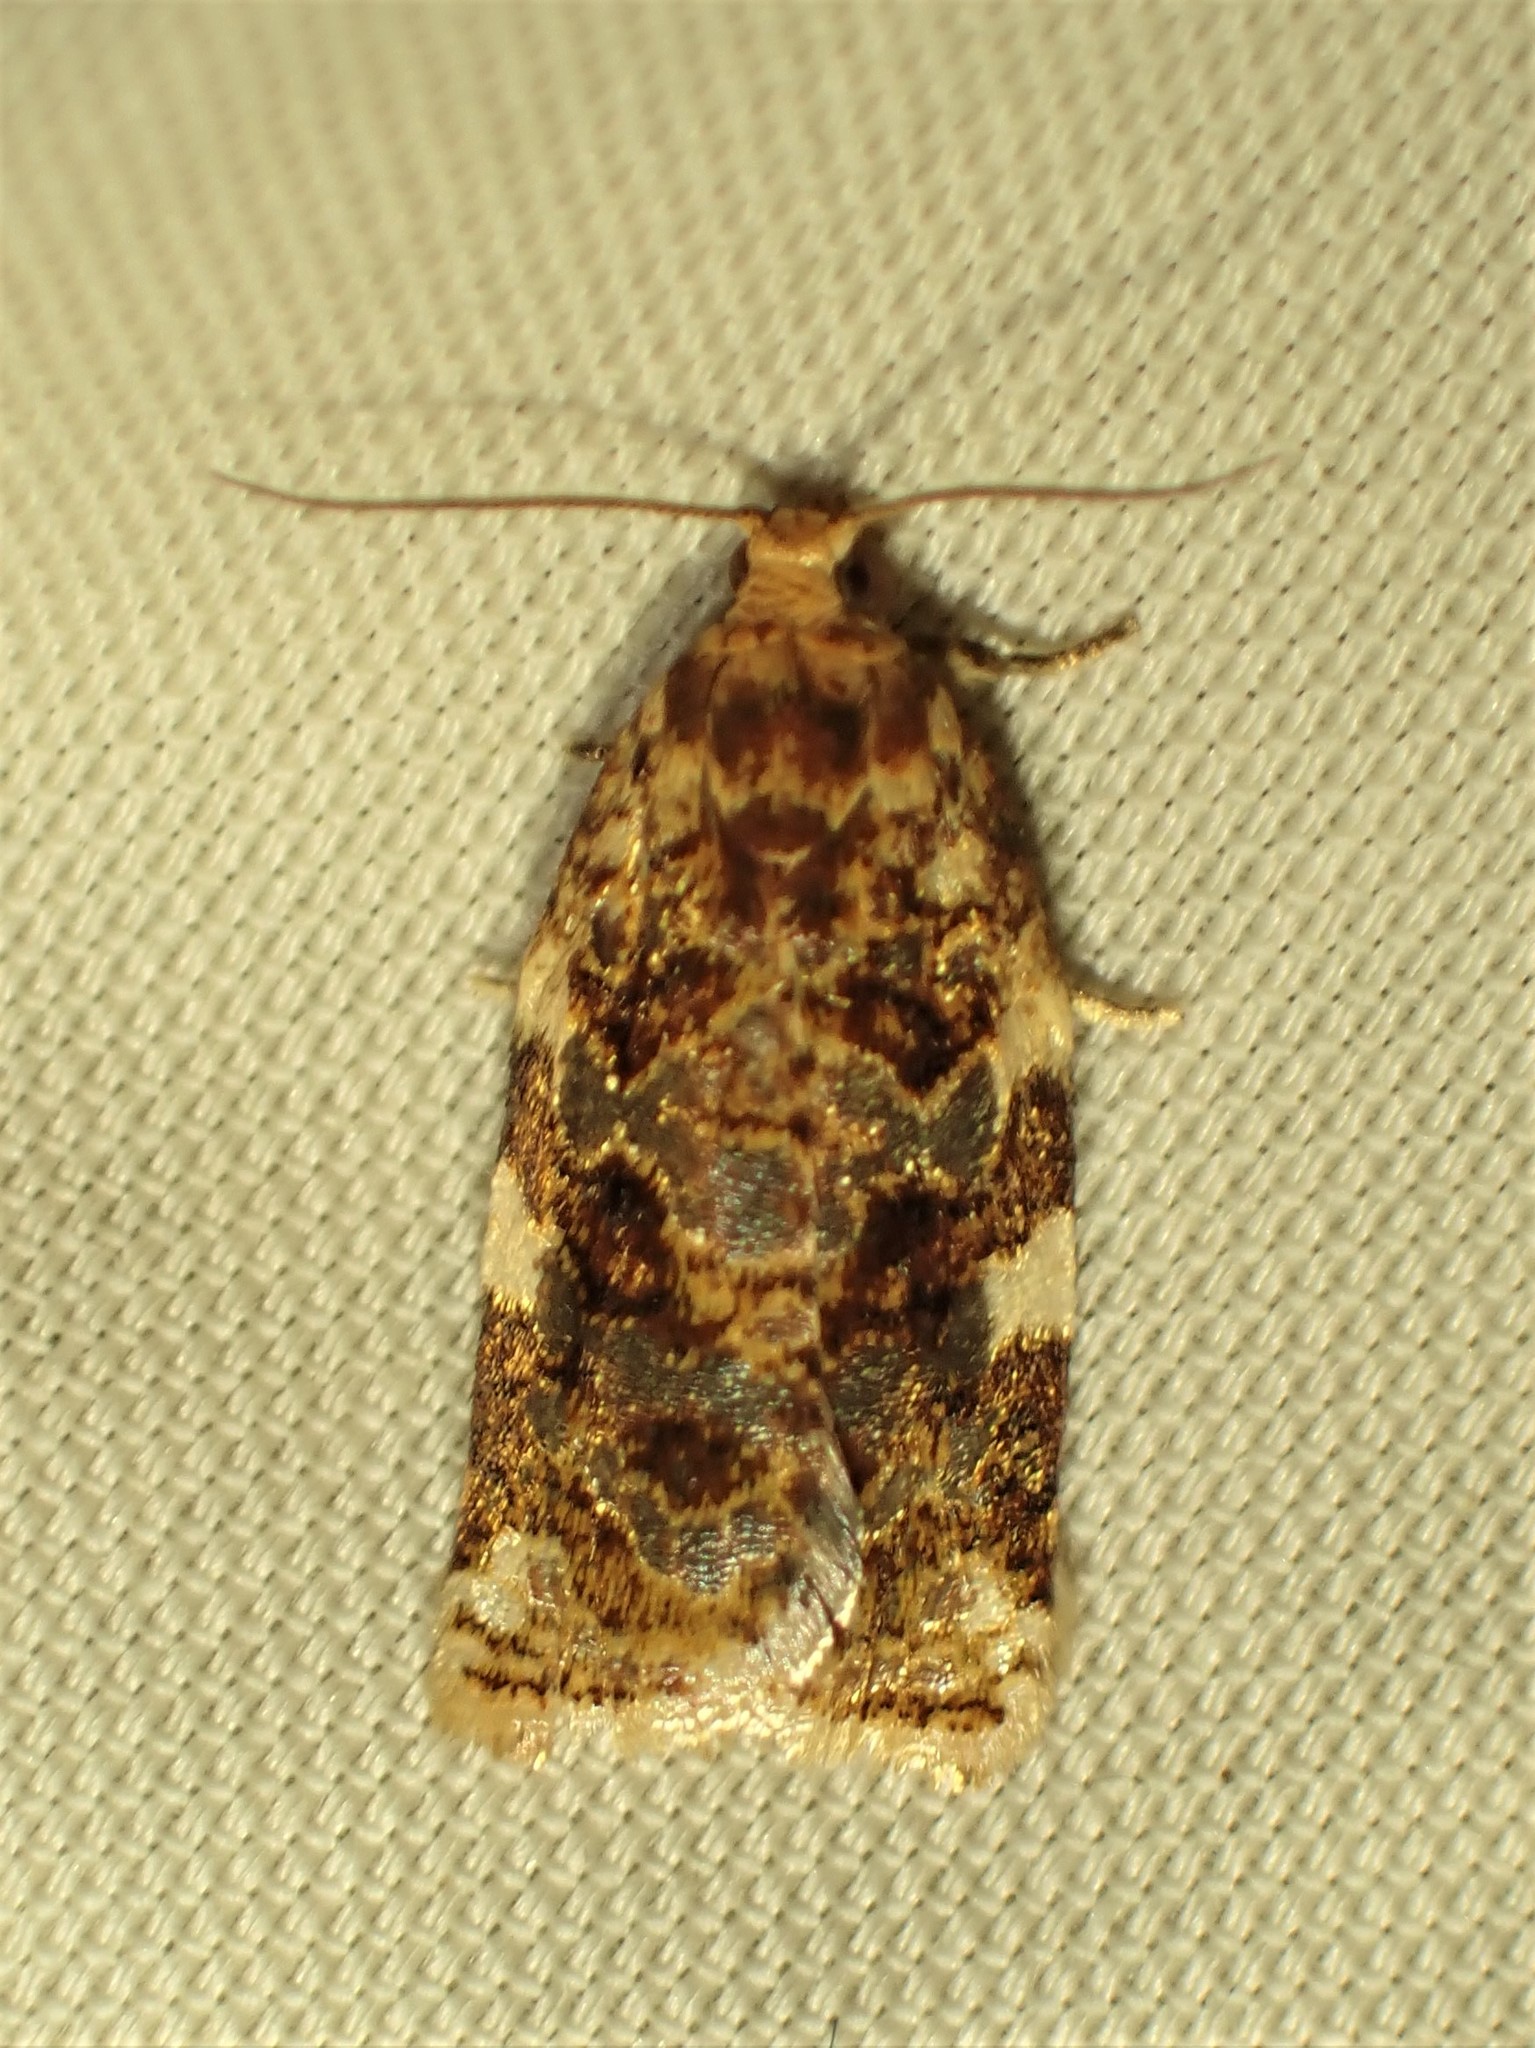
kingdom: Animalia
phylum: Arthropoda
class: Insecta
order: Lepidoptera
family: Tortricidae
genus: Archips
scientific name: Archips argyrospila
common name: Fruit-tree leafroller moth
